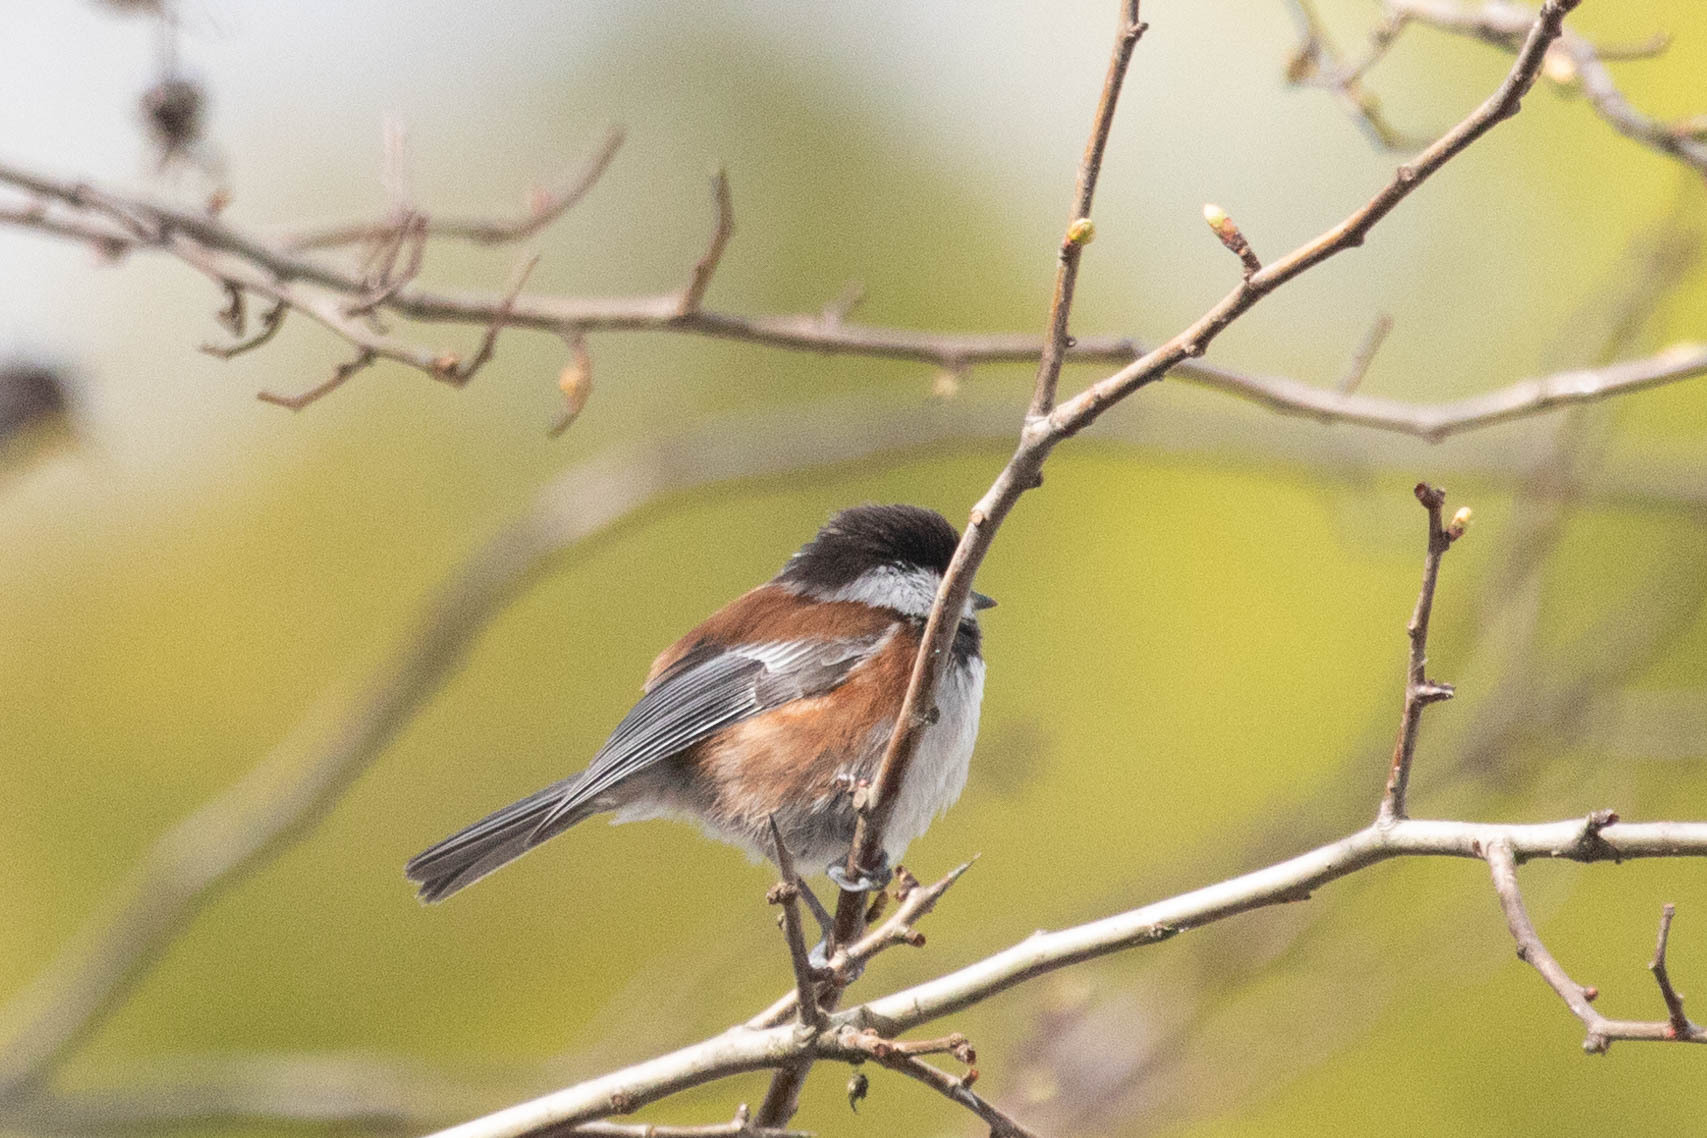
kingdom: Animalia
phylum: Chordata
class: Aves
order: Passeriformes
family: Paridae
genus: Poecile
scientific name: Poecile rufescens
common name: Chestnut-backed chickadee
